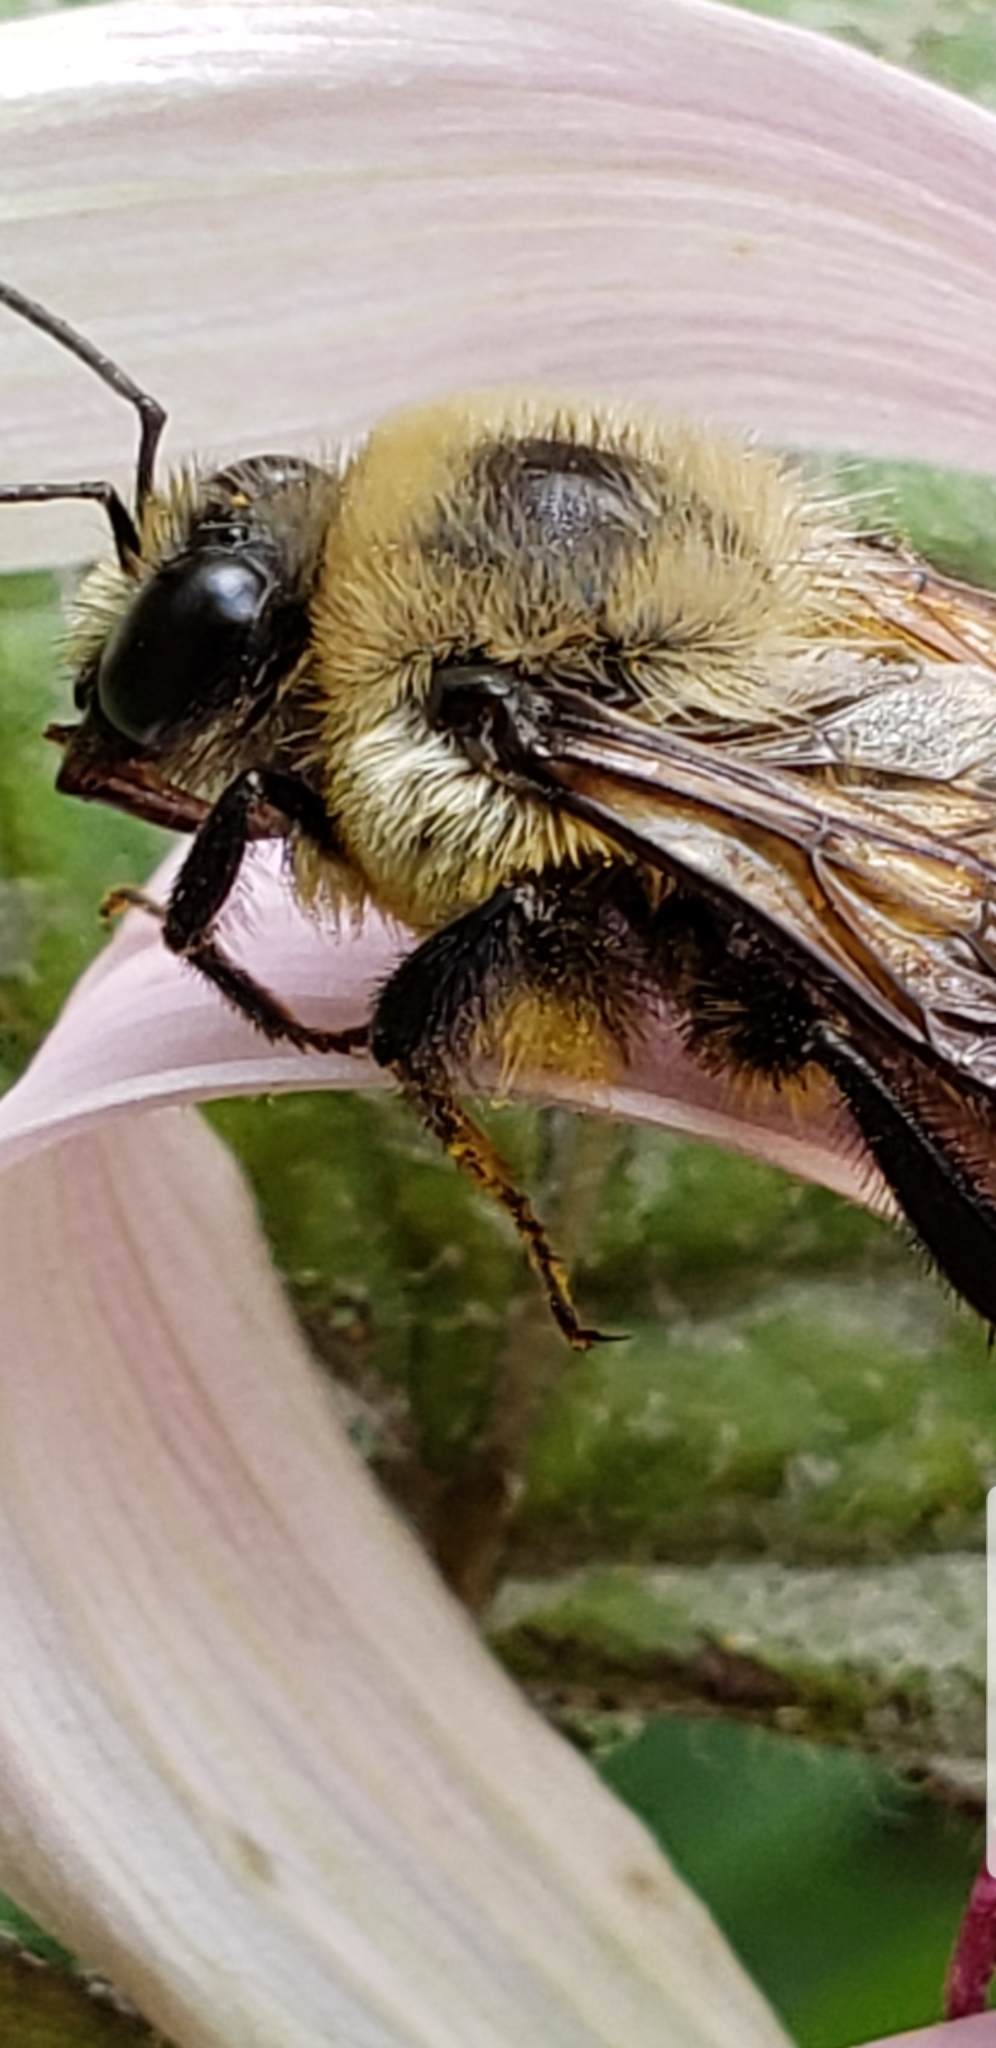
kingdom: Animalia
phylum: Arthropoda
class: Insecta
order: Hymenoptera
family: Apidae
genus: Bombus
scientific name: Bombus griseocollis
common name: Brown-belted bumble bee
